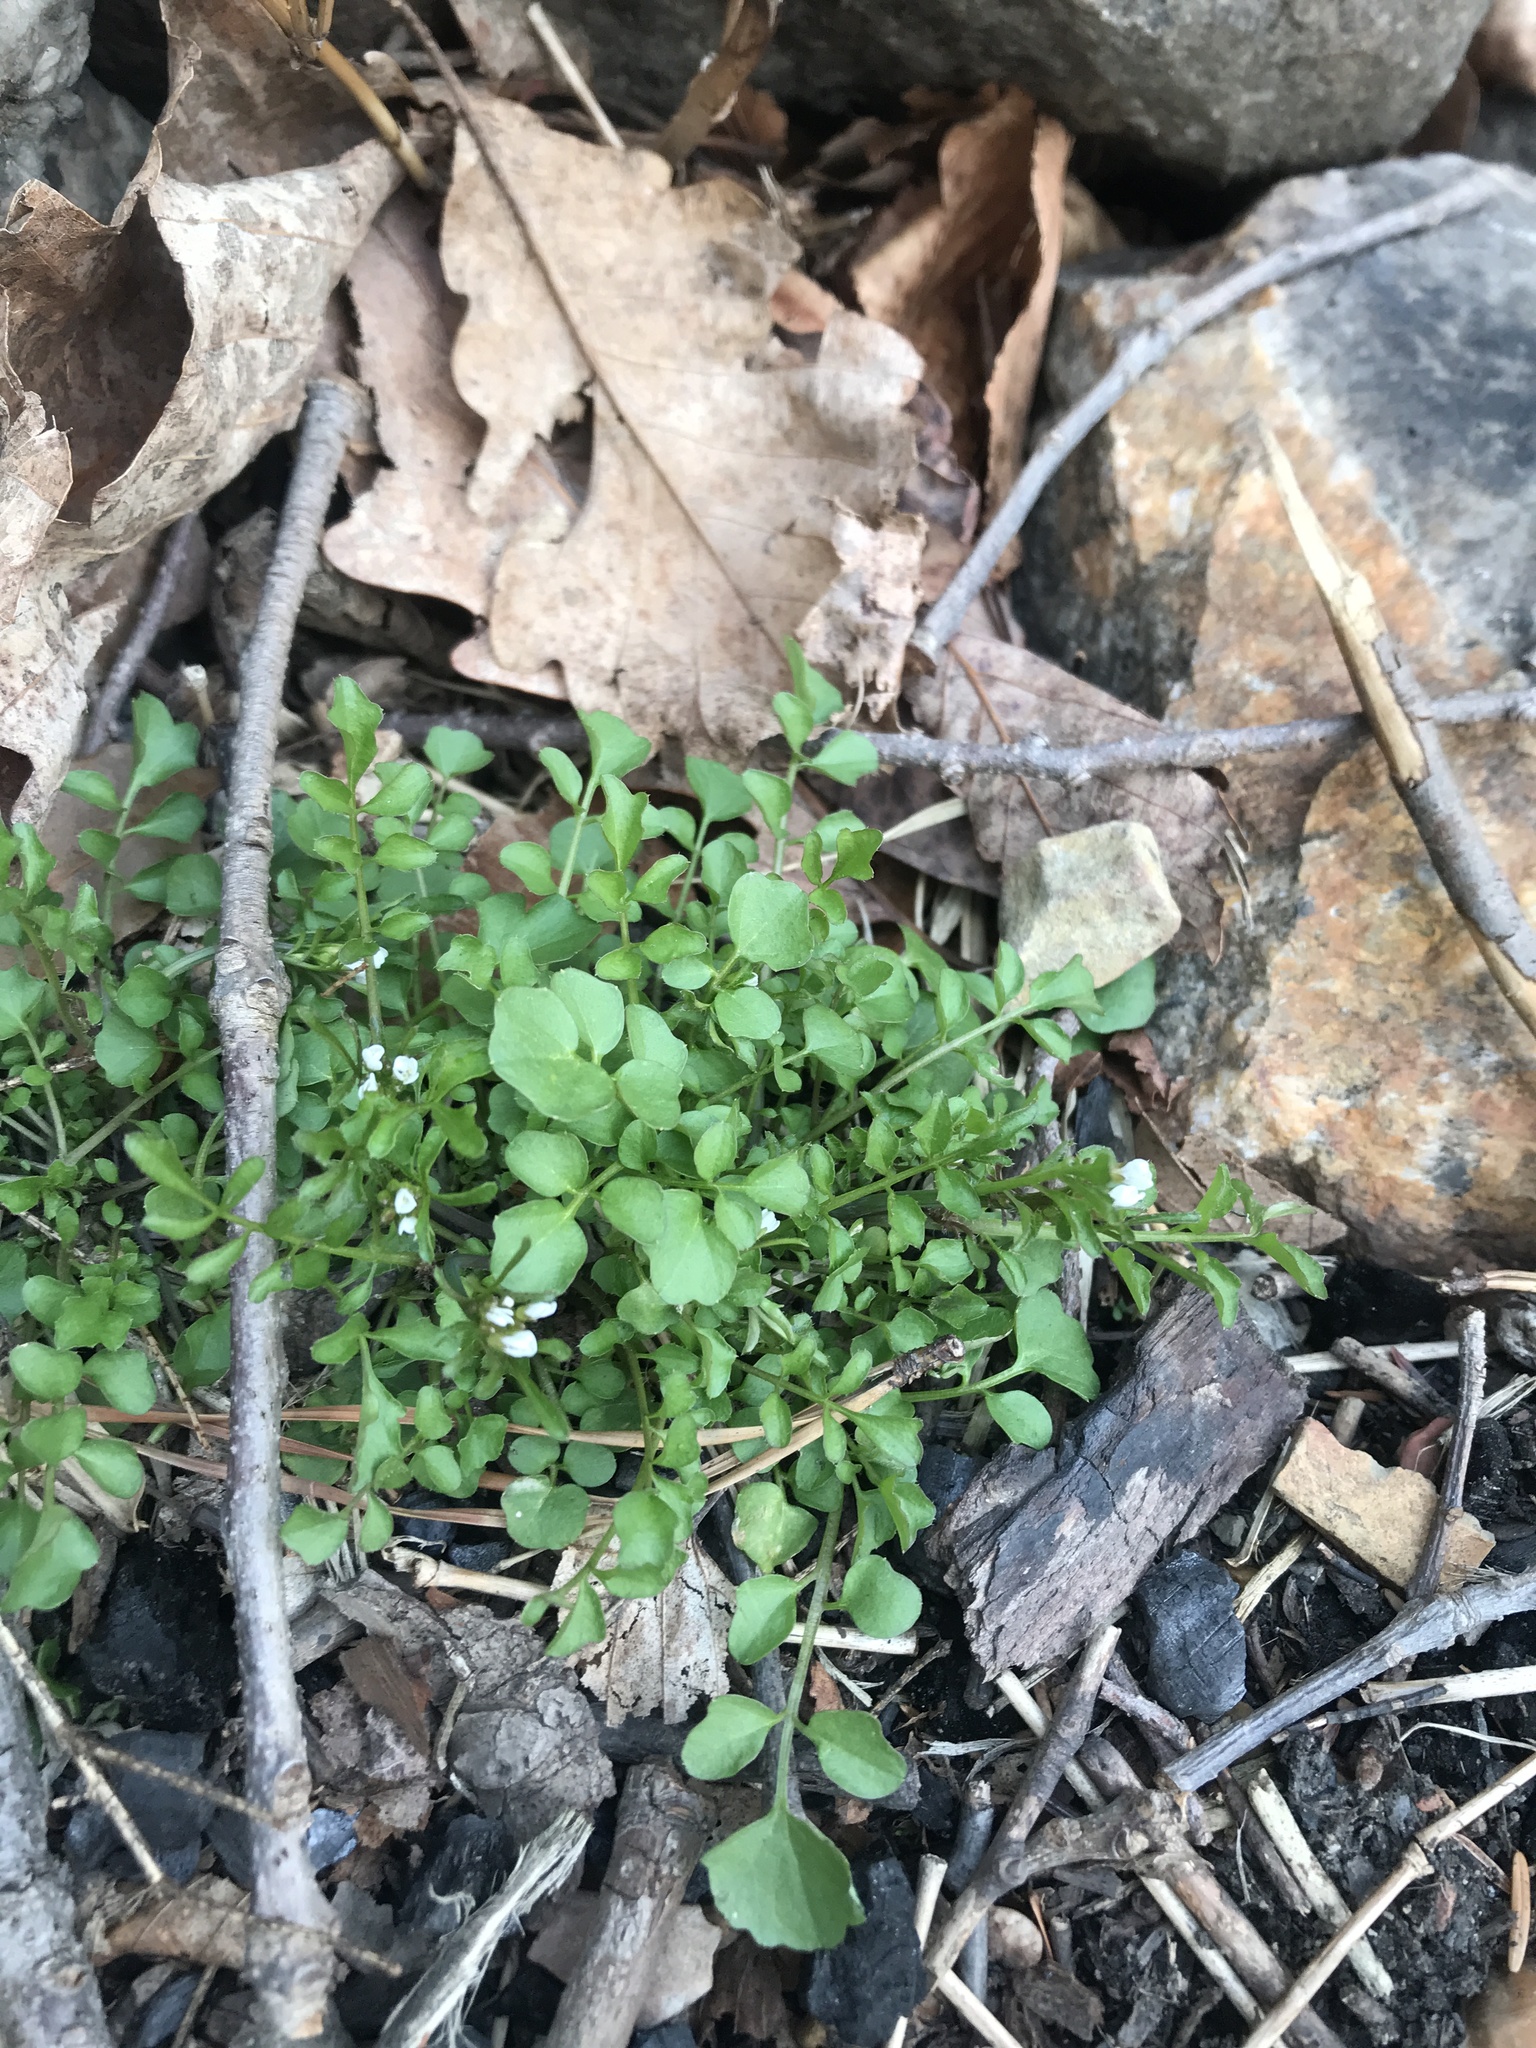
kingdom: Plantae
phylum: Tracheophyta
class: Magnoliopsida
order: Brassicales
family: Brassicaceae
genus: Cardamine
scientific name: Cardamine hirsuta
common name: Hairy bittercress
